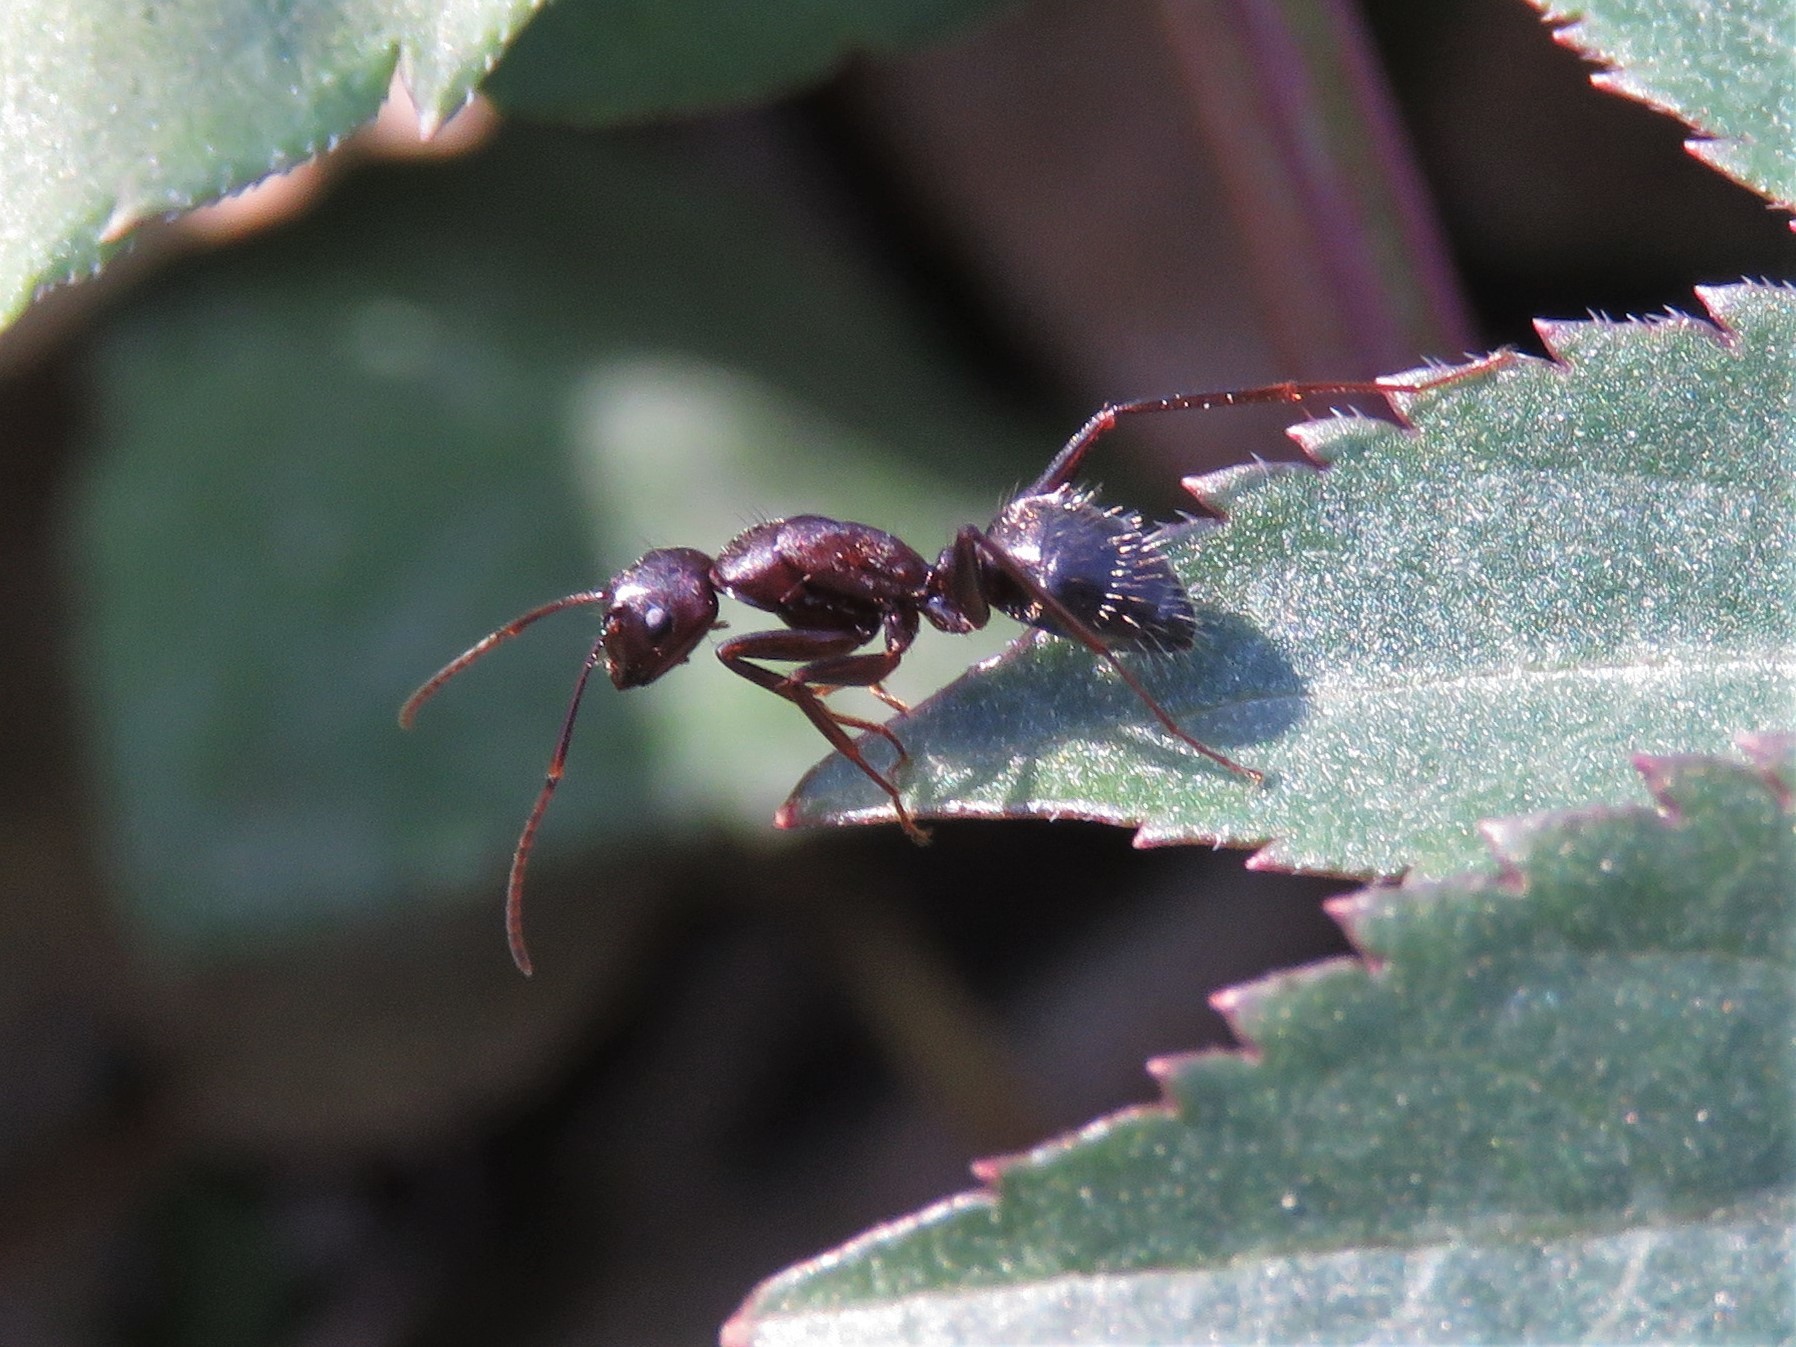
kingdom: Animalia
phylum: Arthropoda
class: Insecta
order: Hymenoptera
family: Formicidae
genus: Camponotus
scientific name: Camponotus pennsylvanicus
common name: Black carpenter ant
